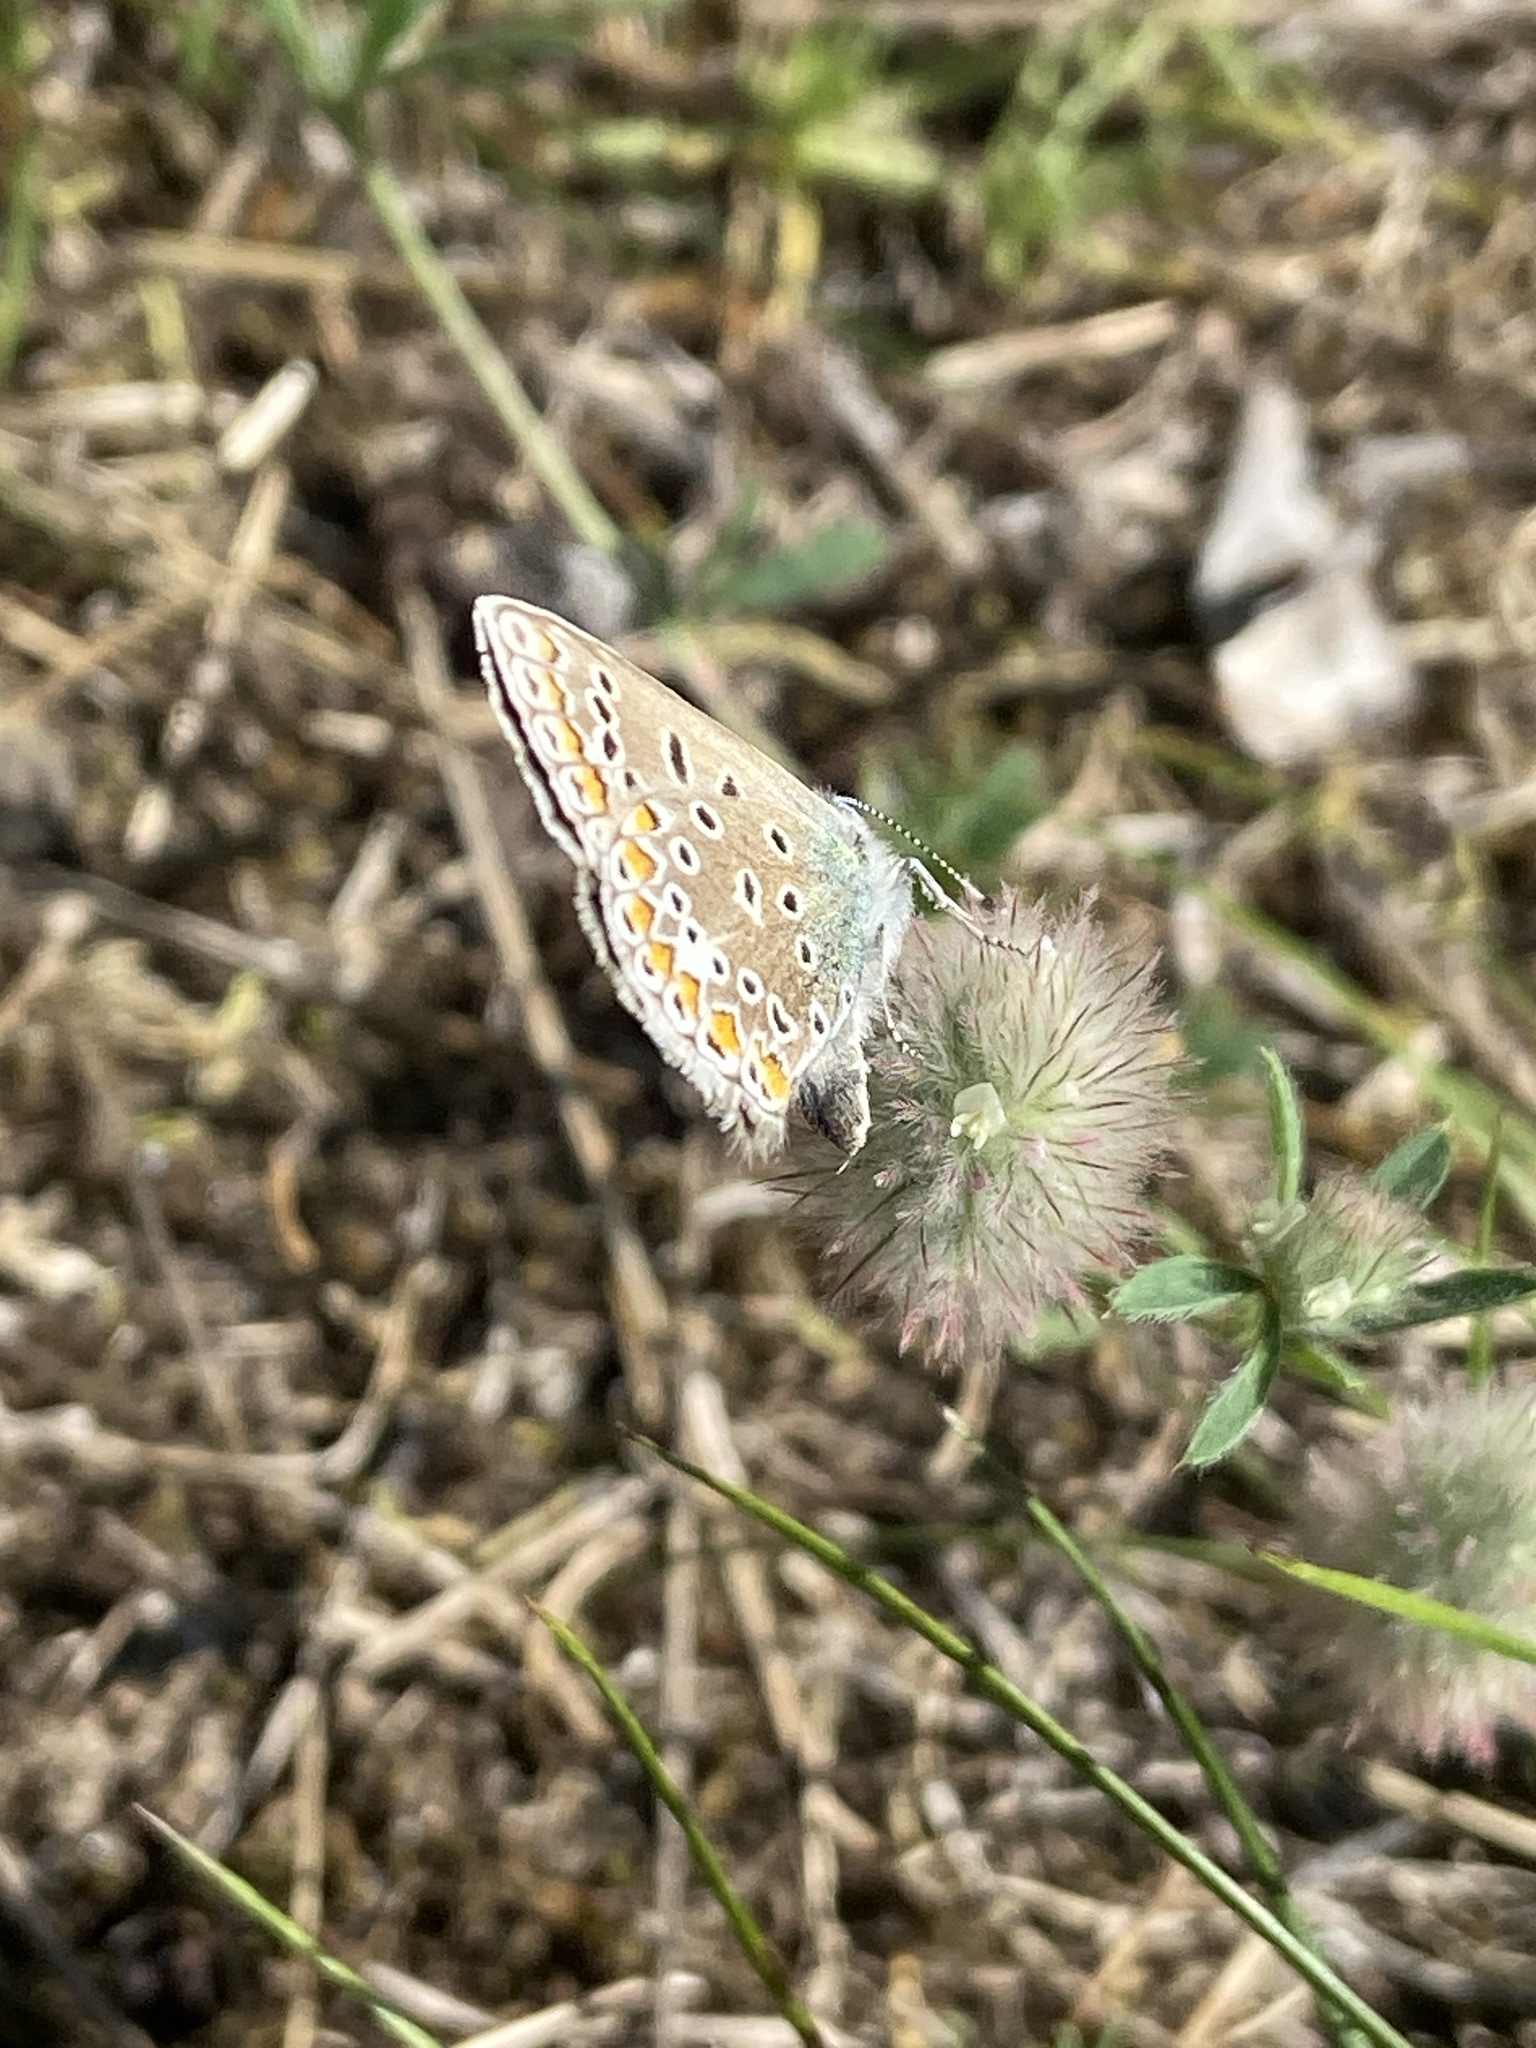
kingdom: Animalia
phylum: Arthropoda
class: Insecta
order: Lepidoptera
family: Lycaenidae
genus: Polyommatus
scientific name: Polyommatus icarus
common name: Common blue
